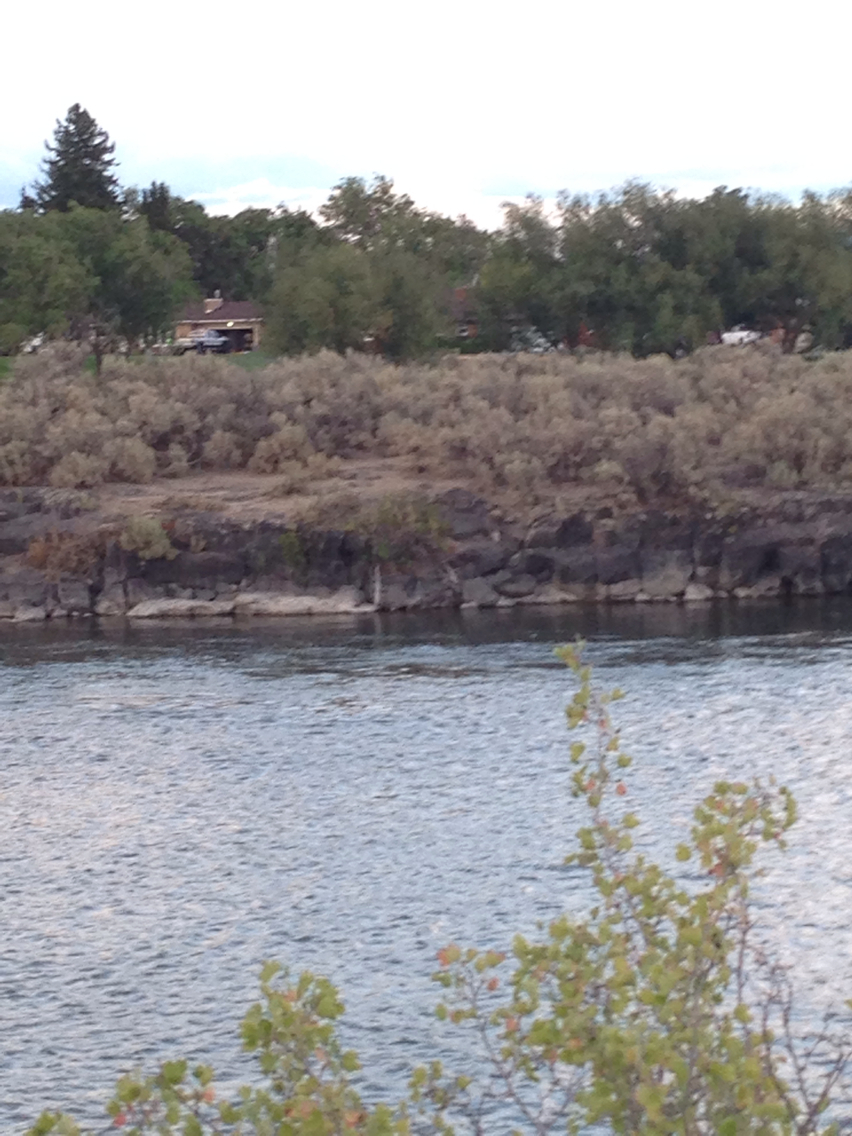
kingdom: Plantae
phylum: Tracheophyta
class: Magnoliopsida
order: Asterales
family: Asteraceae
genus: Artemisia
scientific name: Artemisia tridentata
